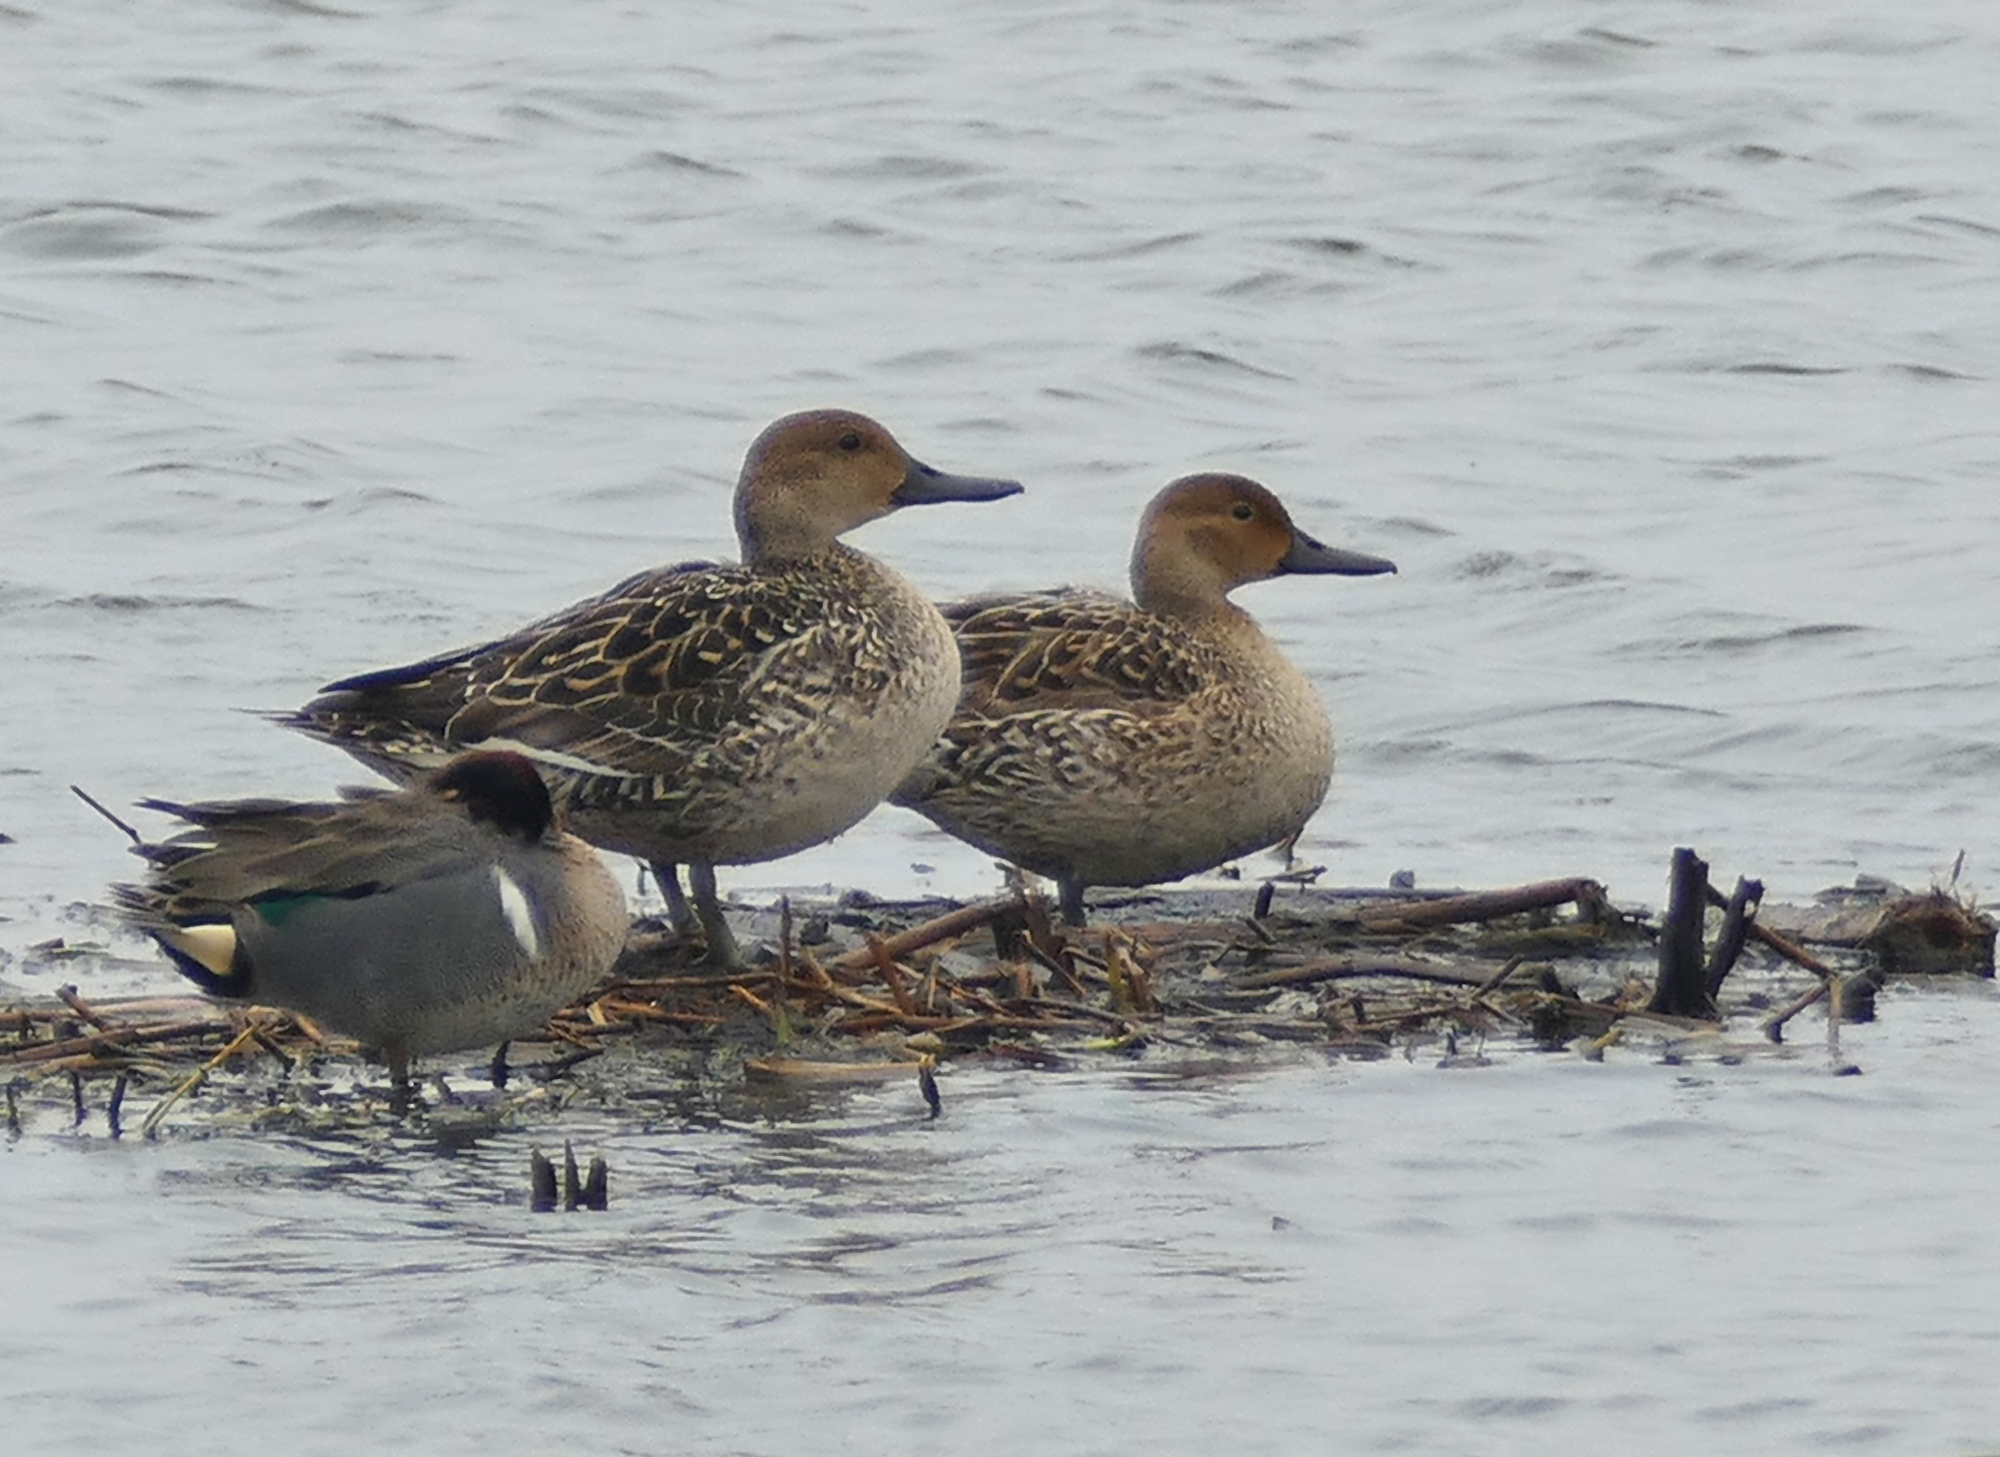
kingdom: Animalia
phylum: Chordata
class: Aves
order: Anseriformes
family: Anatidae
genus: Anas
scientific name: Anas acuta
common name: Northern pintail
